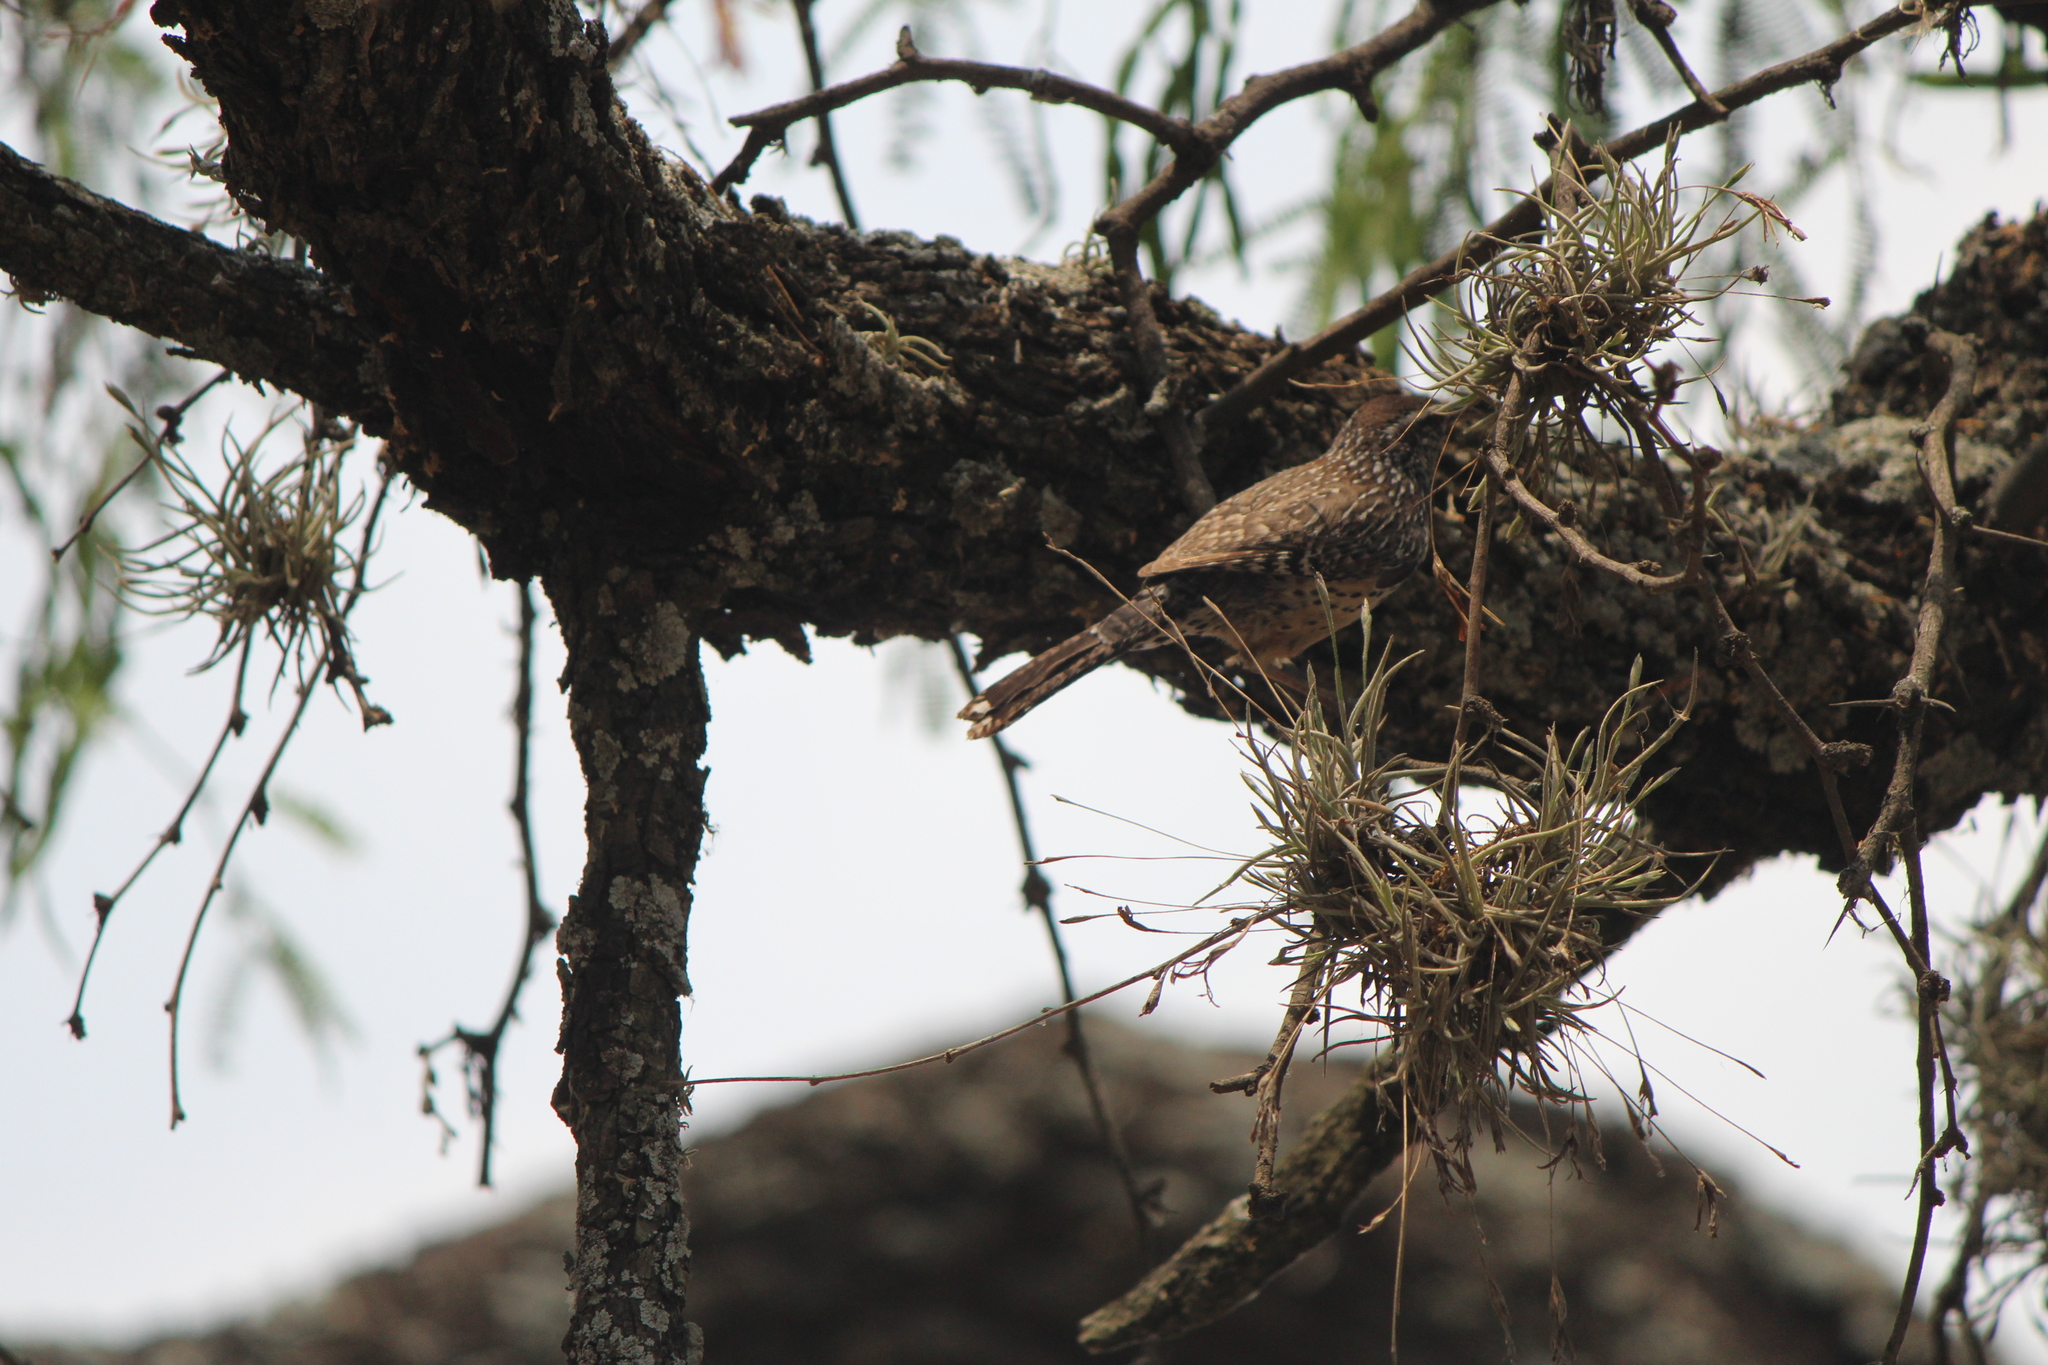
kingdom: Animalia
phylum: Chordata
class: Aves
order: Passeriformes
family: Troglodytidae
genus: Campylorhynchus
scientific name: Campylorhynchus brunneicapillus
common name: Cactus wren
